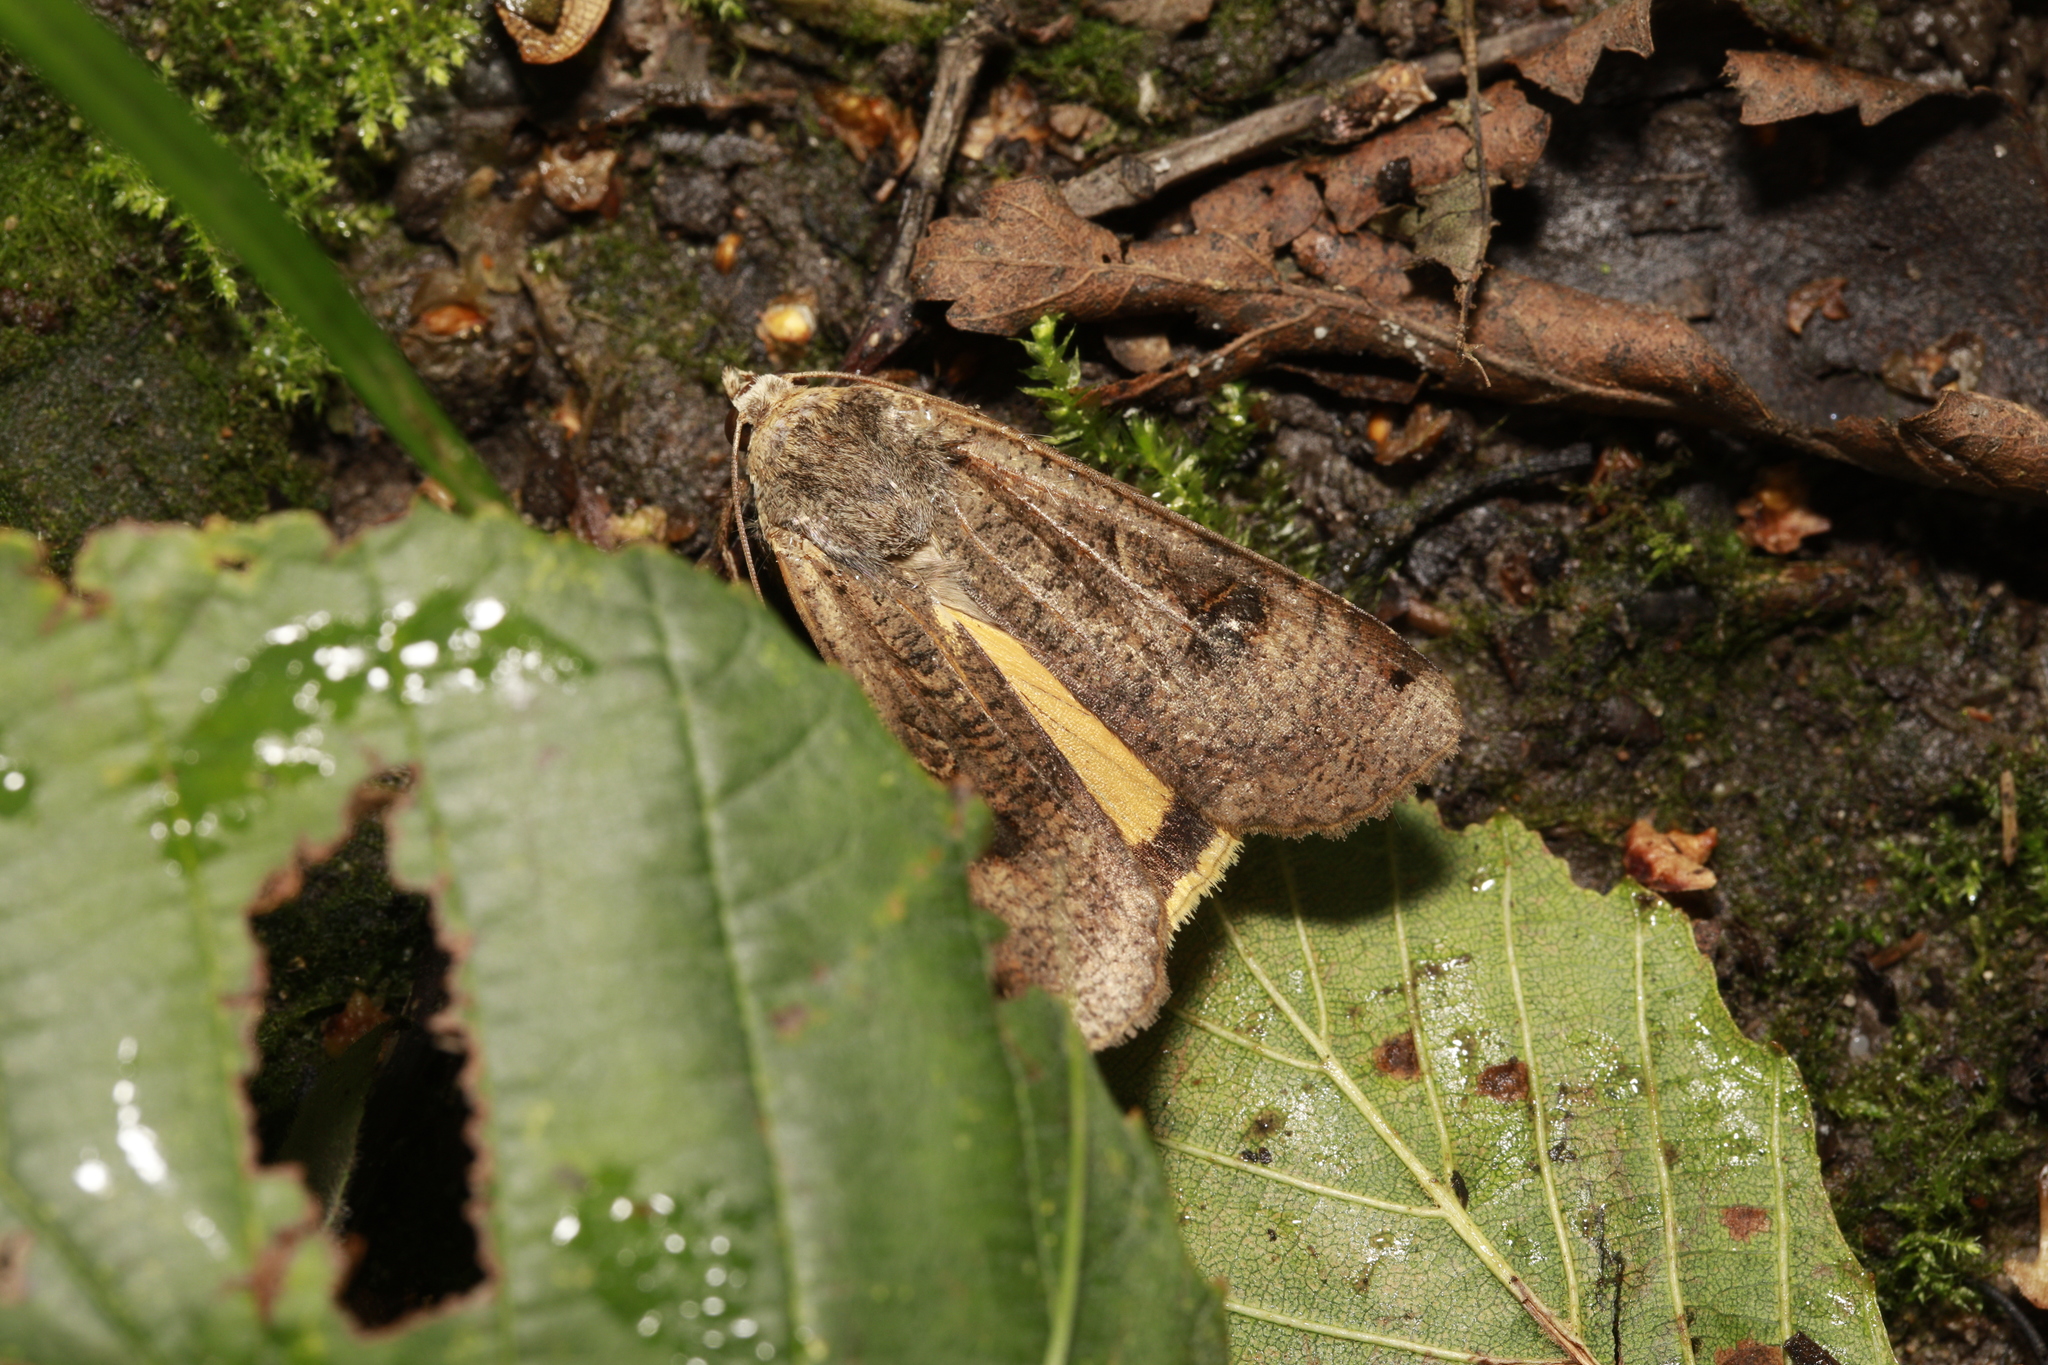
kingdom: Animalia
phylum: Arthropoda
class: Insecta
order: Lepidoptera
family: Noctuidae
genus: Noctua
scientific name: Noctua pronuba
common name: Large yellow underwing
